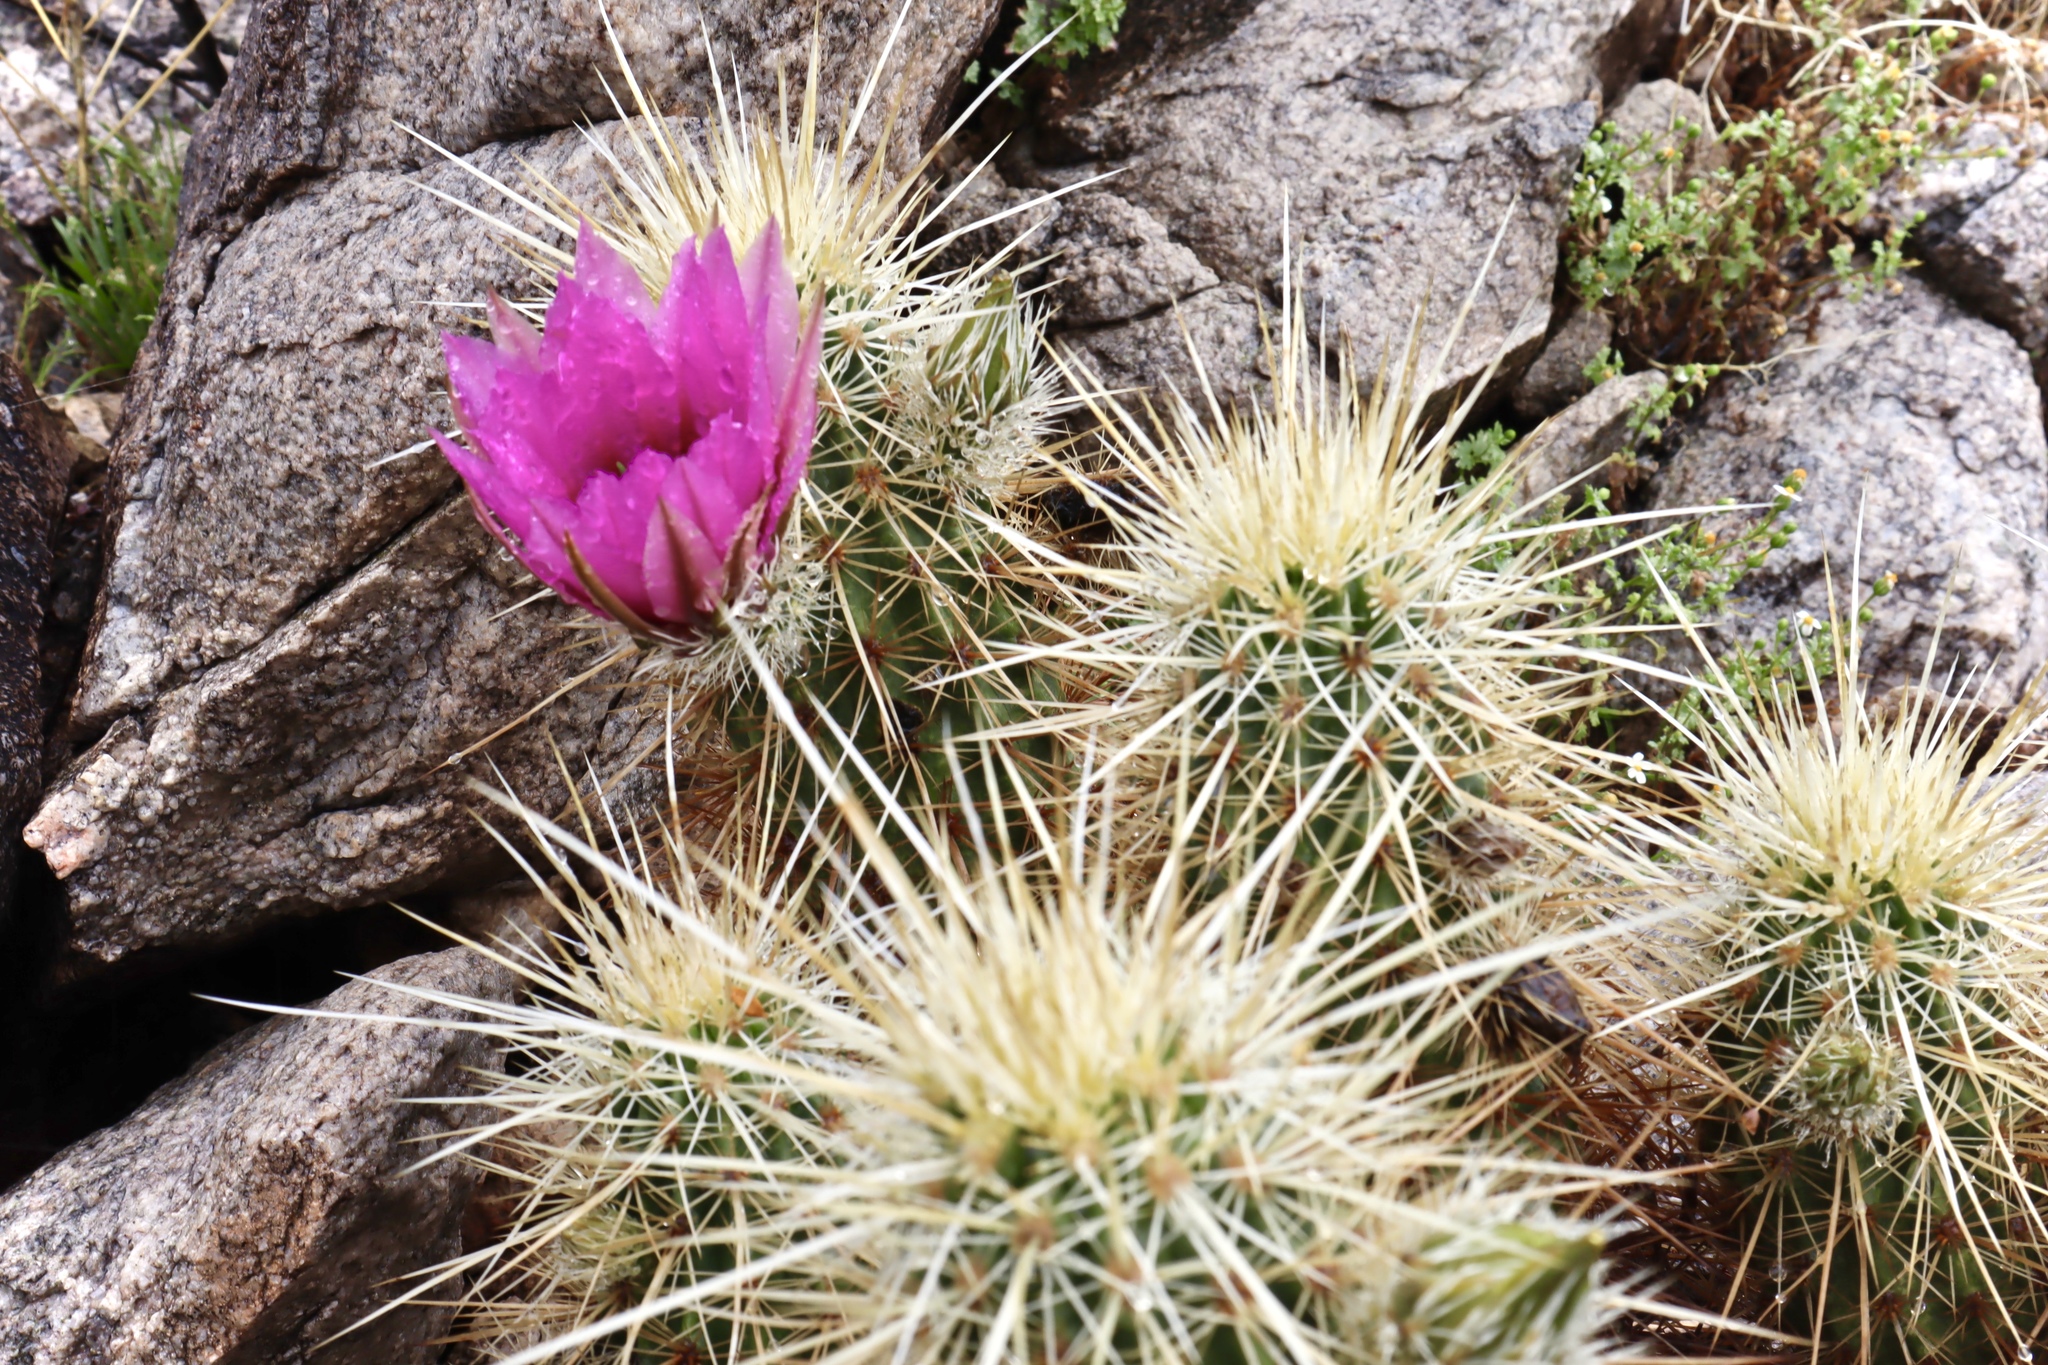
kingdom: Plantae
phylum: Tracheophyta
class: Magnoliopsida
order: Caryophyllales
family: Cactaceae
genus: Echinocereus
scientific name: Echinocereus engelmannii
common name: Engelmann's hedgehog cactus
